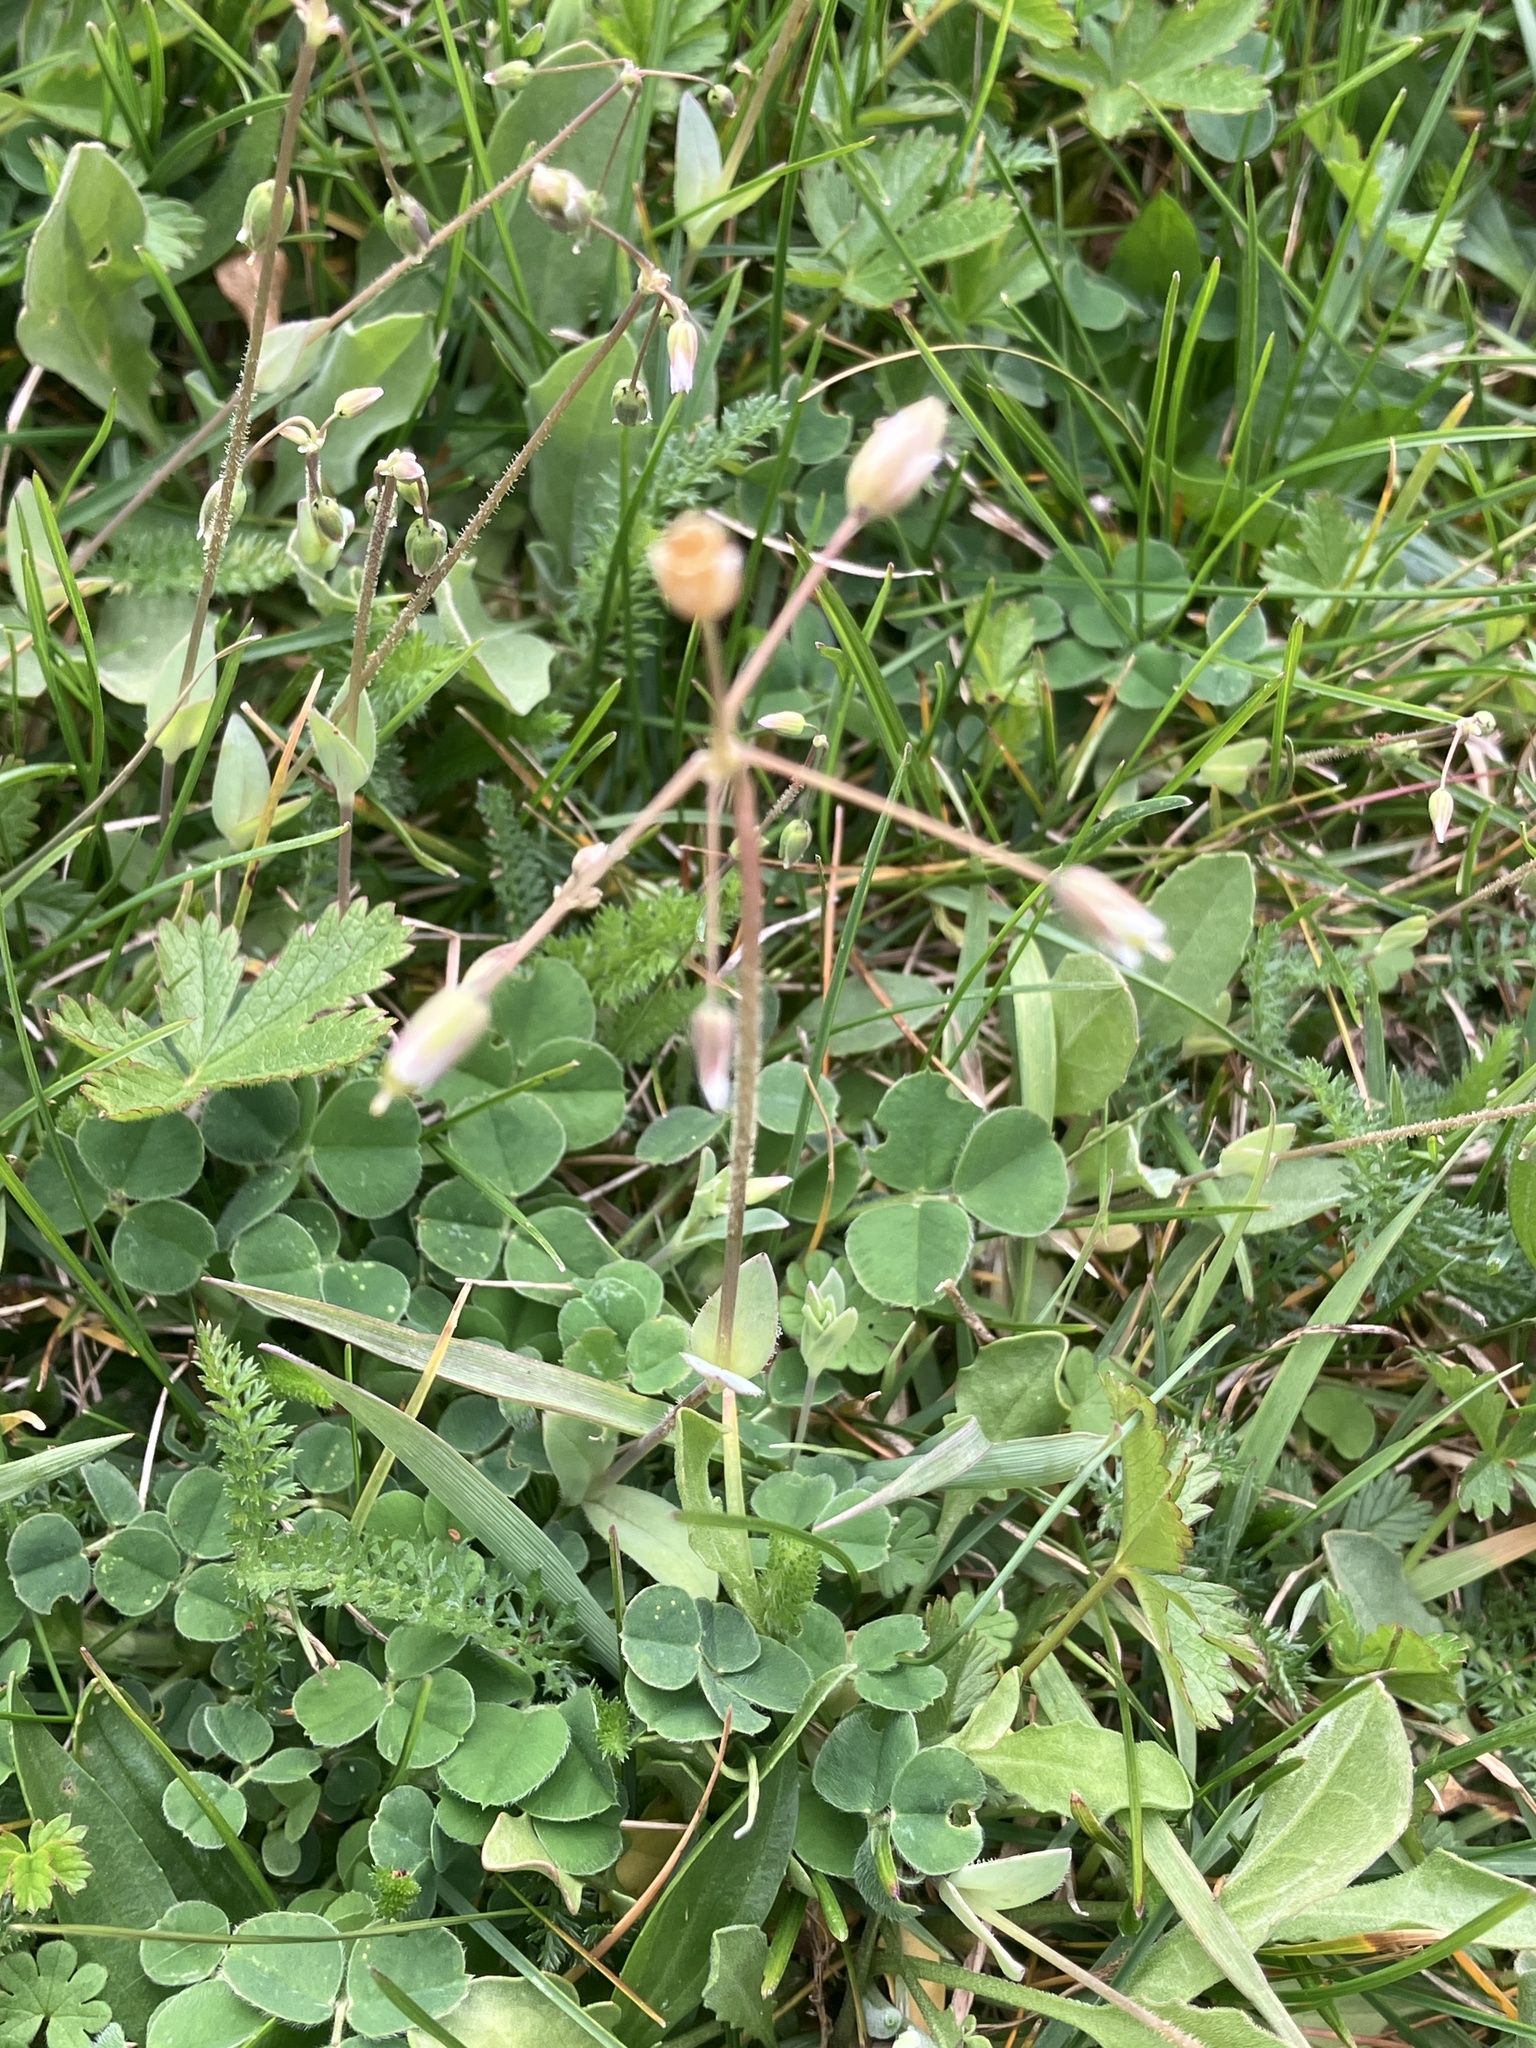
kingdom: Plantae
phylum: Tracheophyta
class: Magnoliopsida
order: Caryophyllales
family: Caryophyllaceae
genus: Holosteum
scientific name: Holosteum umbellatum
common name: Jagged chickweed
